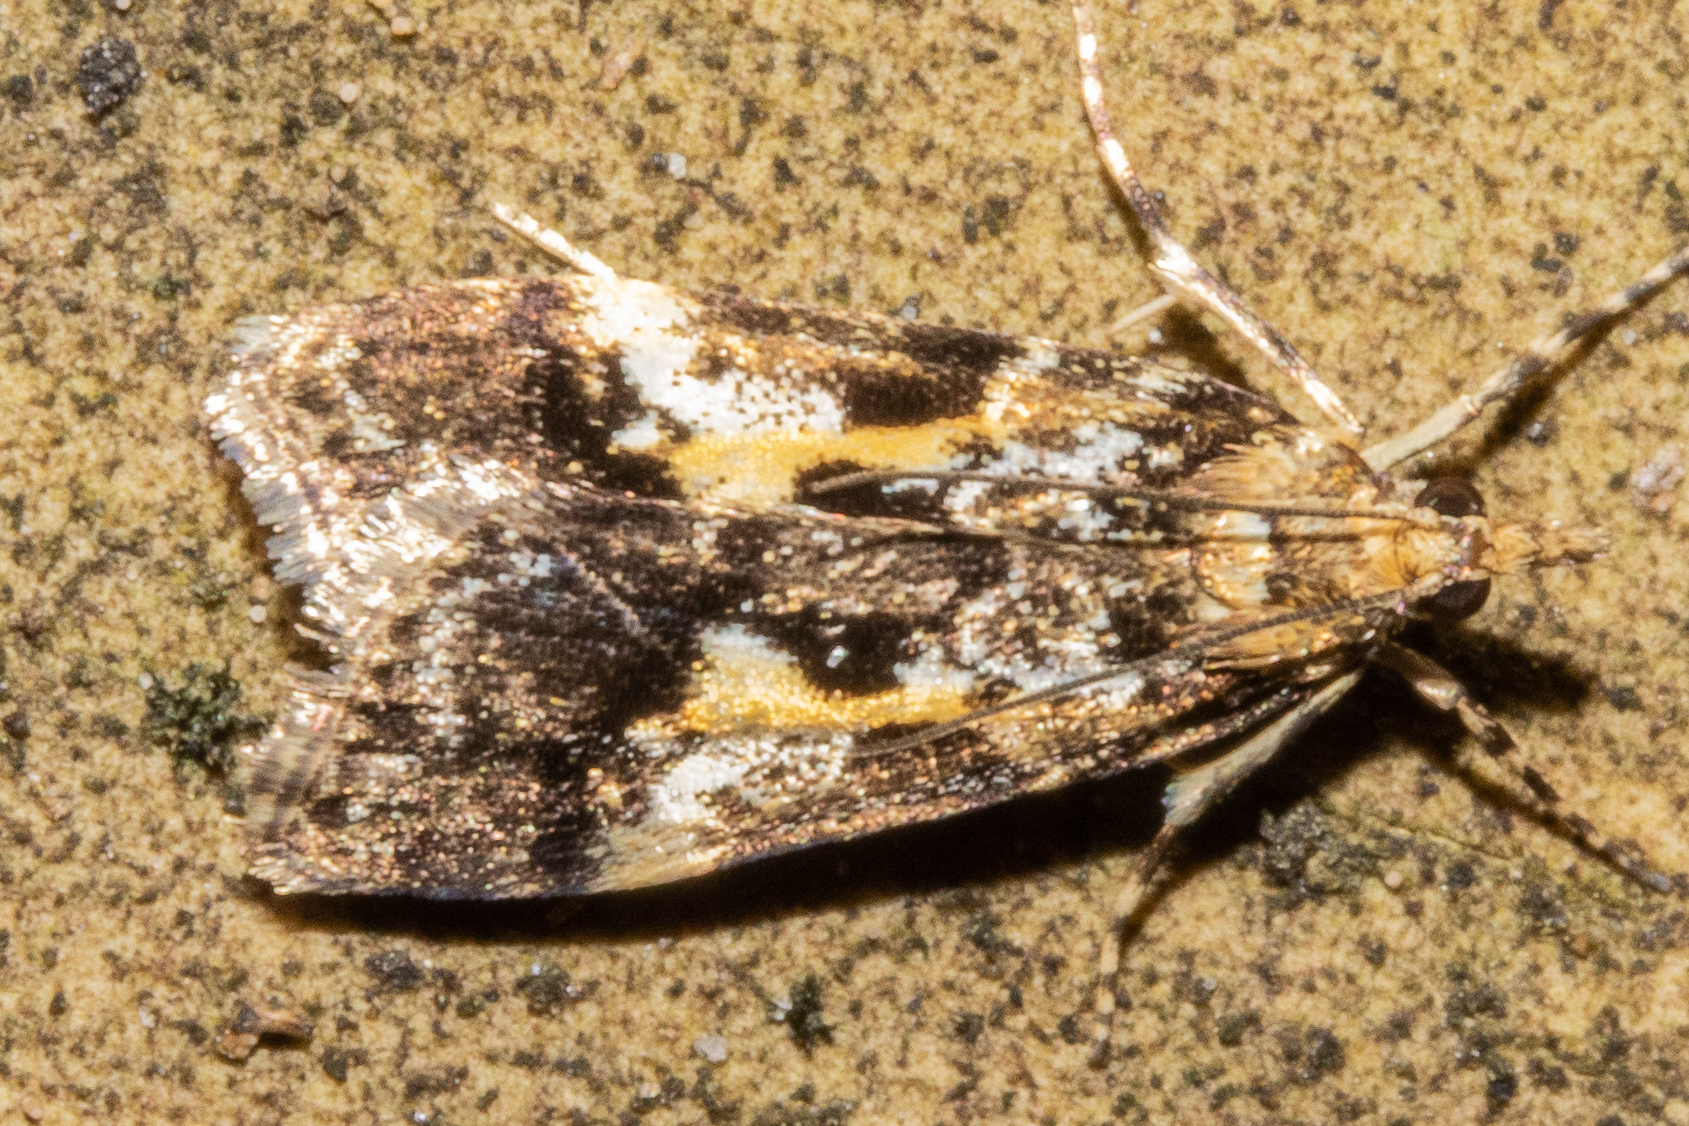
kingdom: Animalia
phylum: Arthropoda
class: Insecta
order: Lepidoptera
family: Crambidae
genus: Eudonia
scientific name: Eudonia characta
